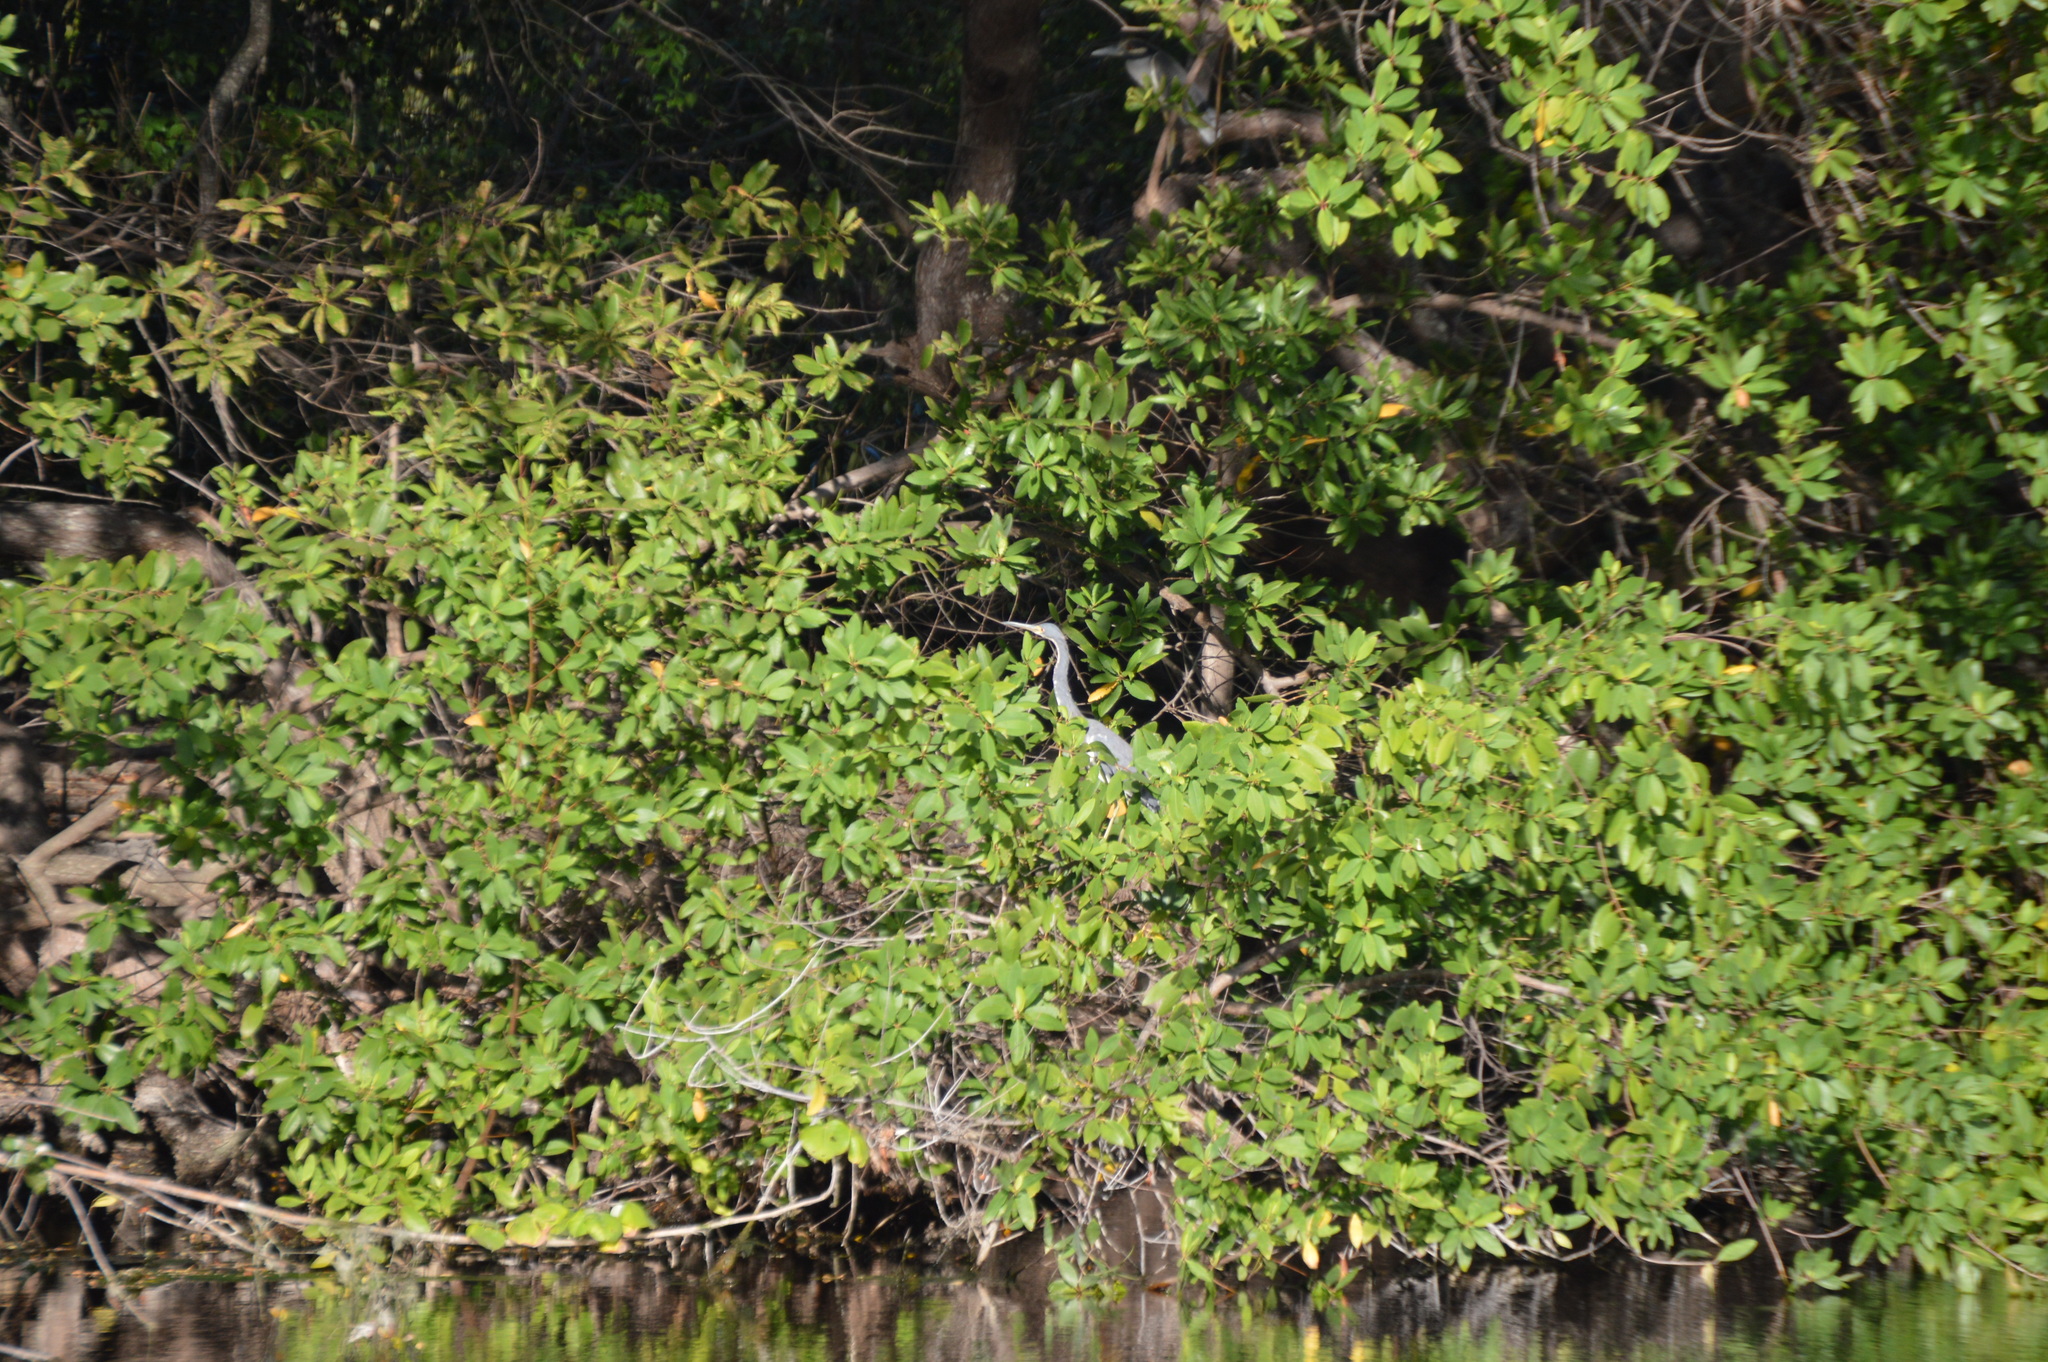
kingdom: Animalia
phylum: Chordata
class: Aves
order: Pelecaniformes
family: Ardeidae
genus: Egretta
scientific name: Egretta tricolor
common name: Tricolored heron
